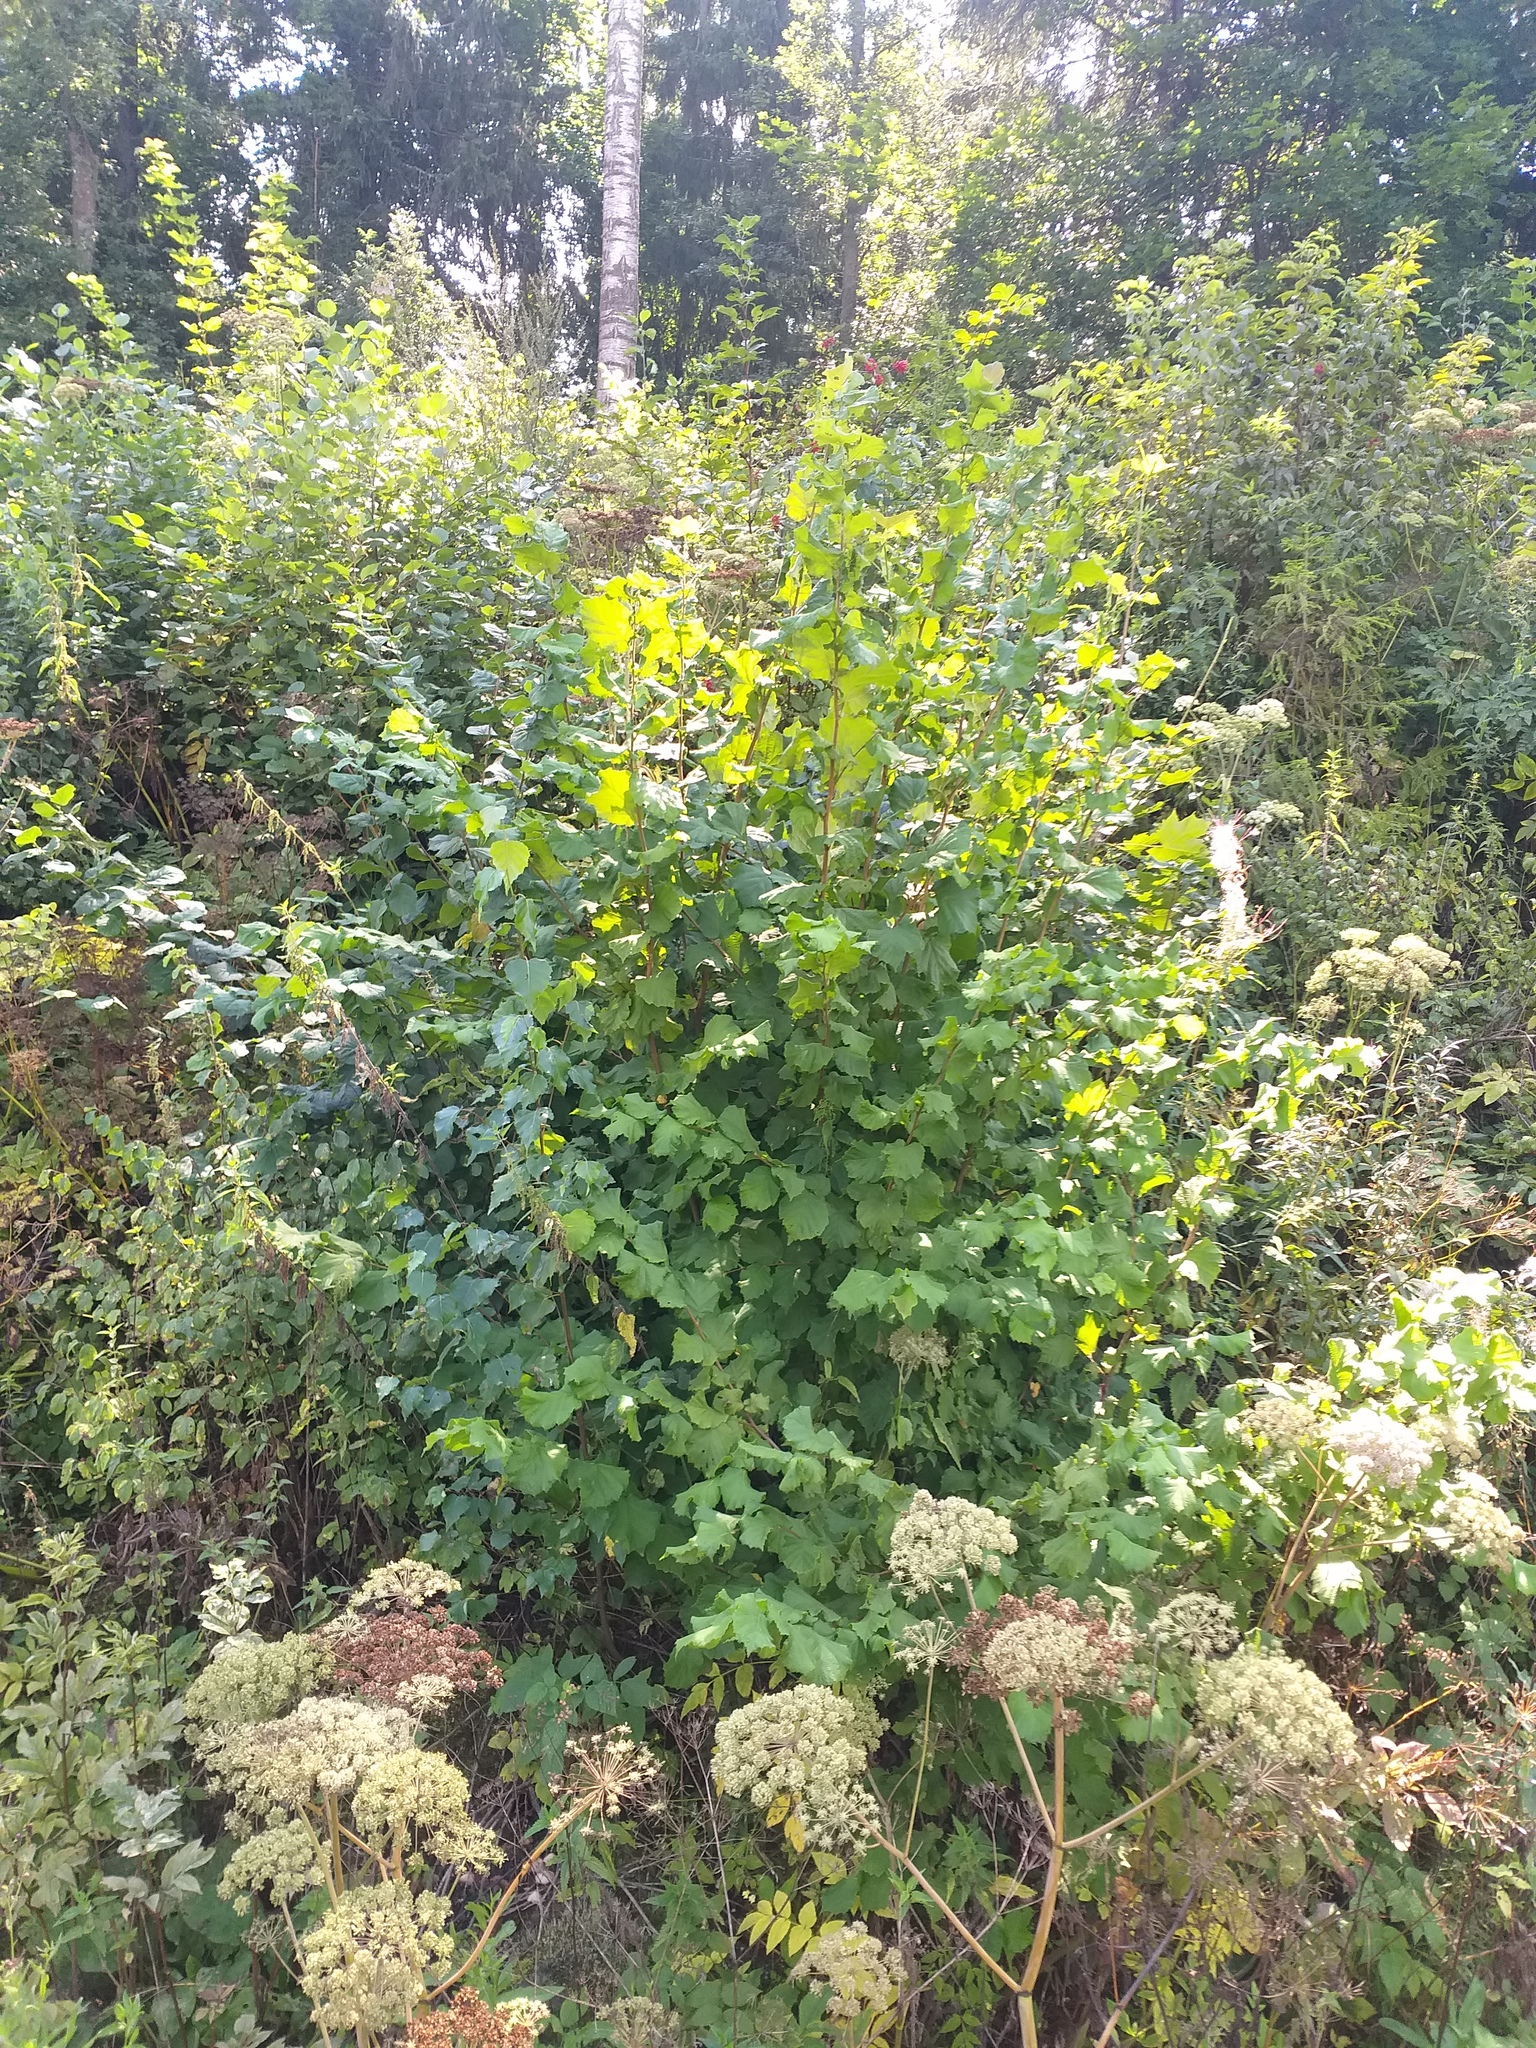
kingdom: Plantae
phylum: Tracheophyta
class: Magnoliopsida
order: Fagales
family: Betulaceae
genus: Corylus
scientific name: Corylus avellana
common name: European hazel
